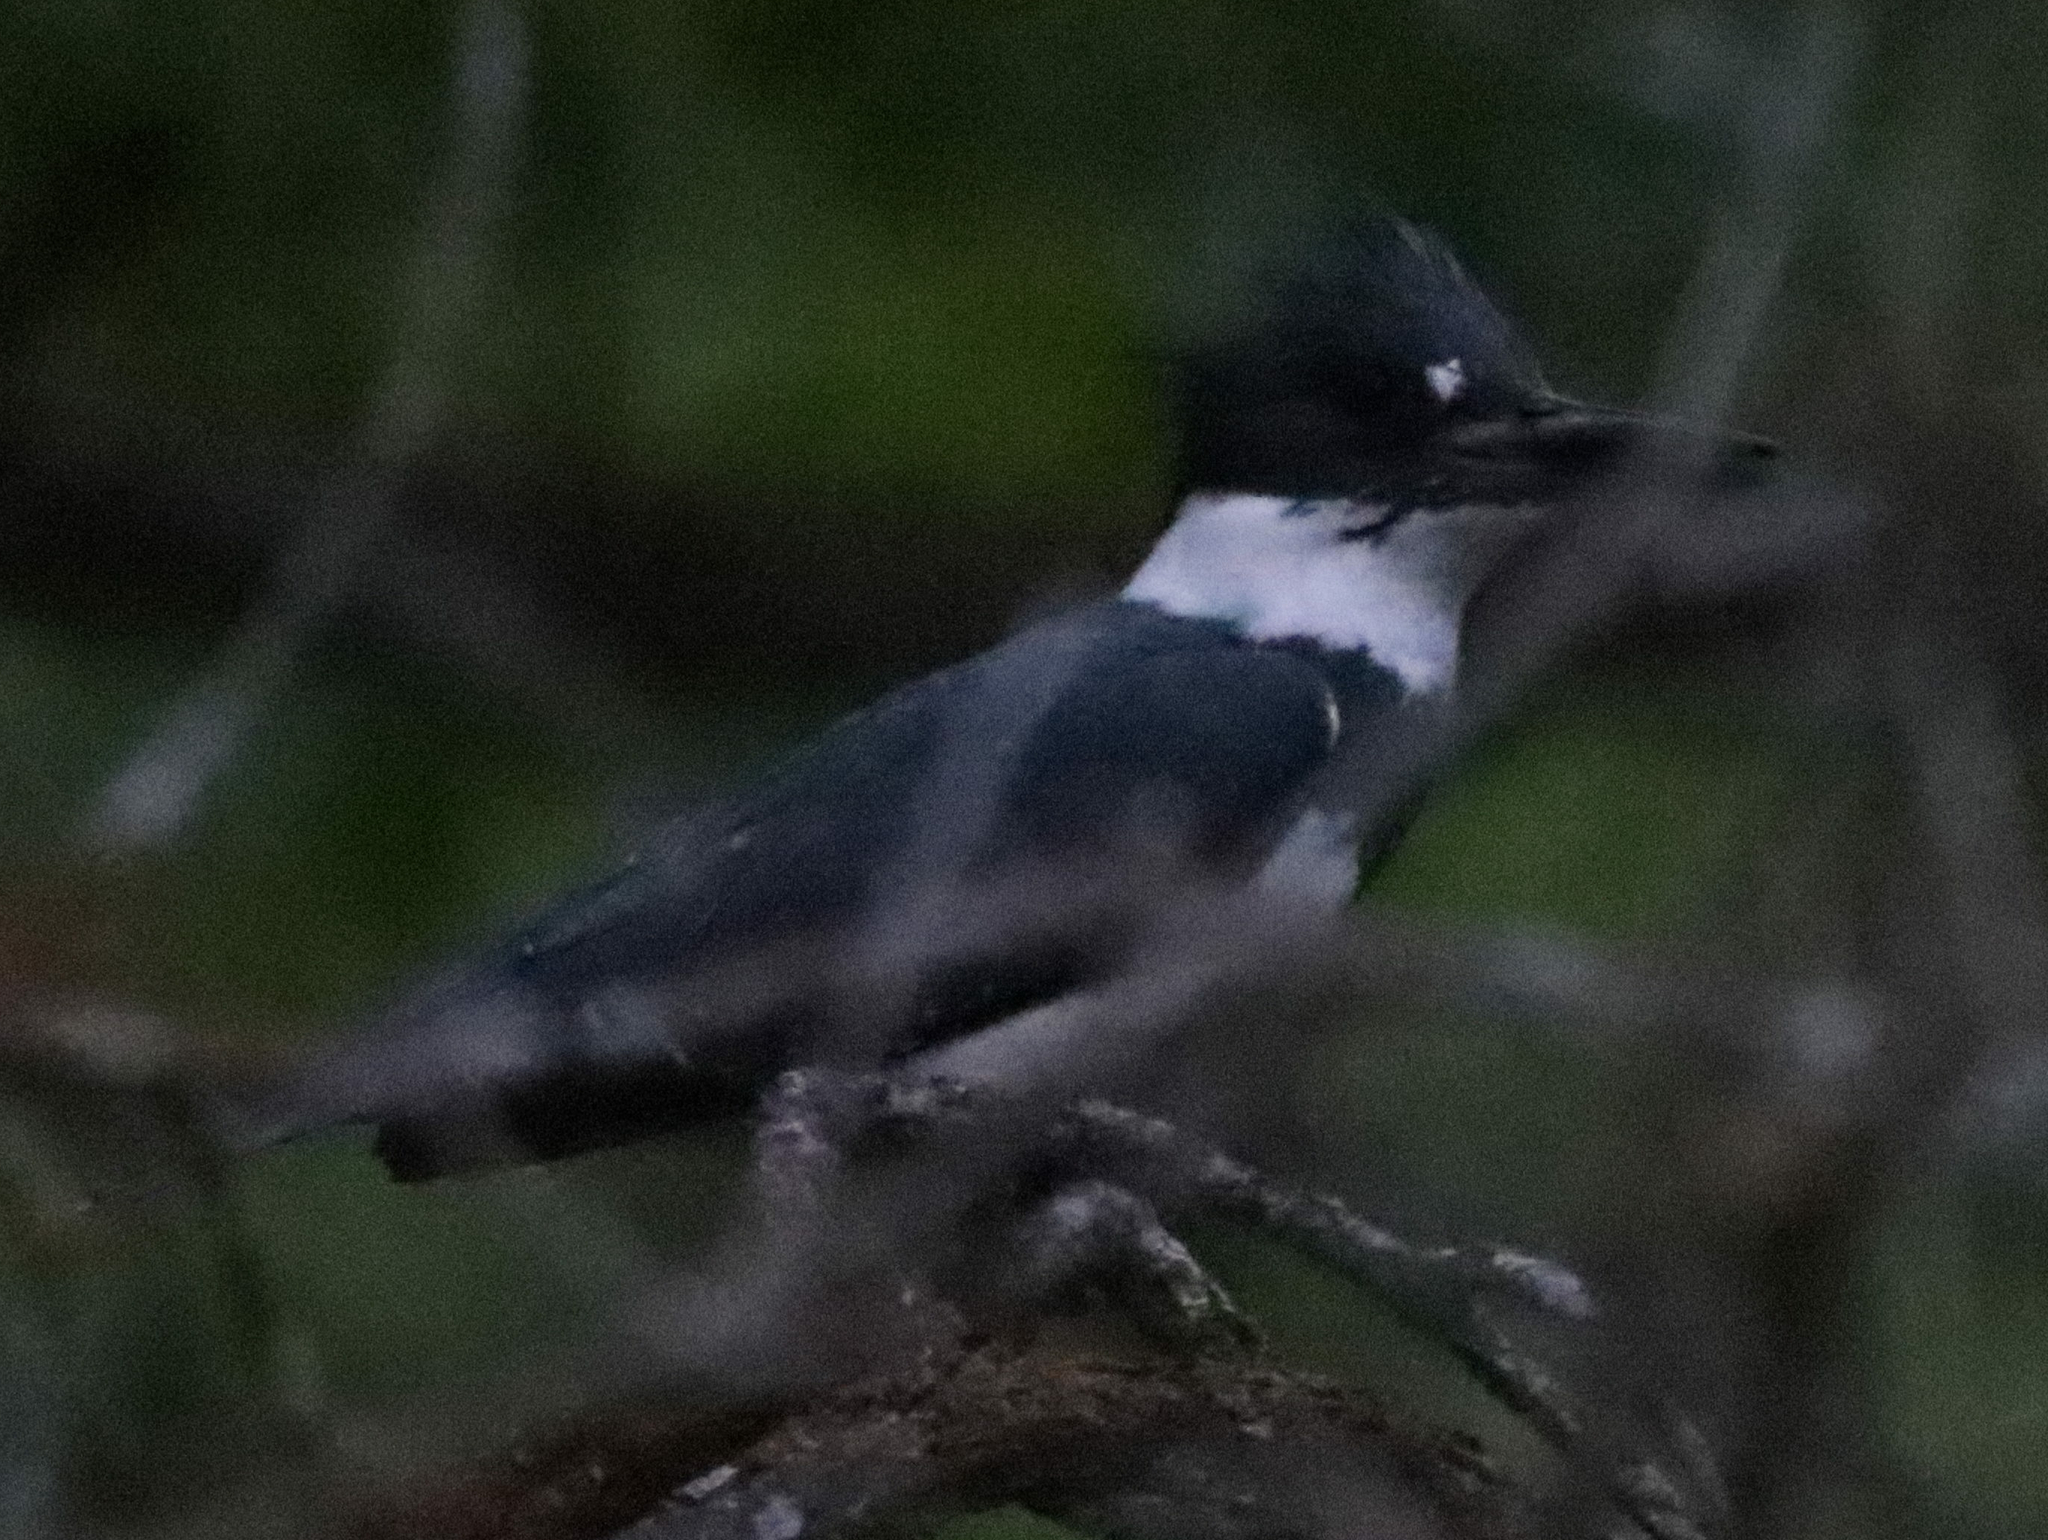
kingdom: Animalia
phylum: Chordata
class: Aves
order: Coraciiformes
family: Alcedinidae
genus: Megaceryle
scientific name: Megaceryle alcyon
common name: Belted kingfisher
